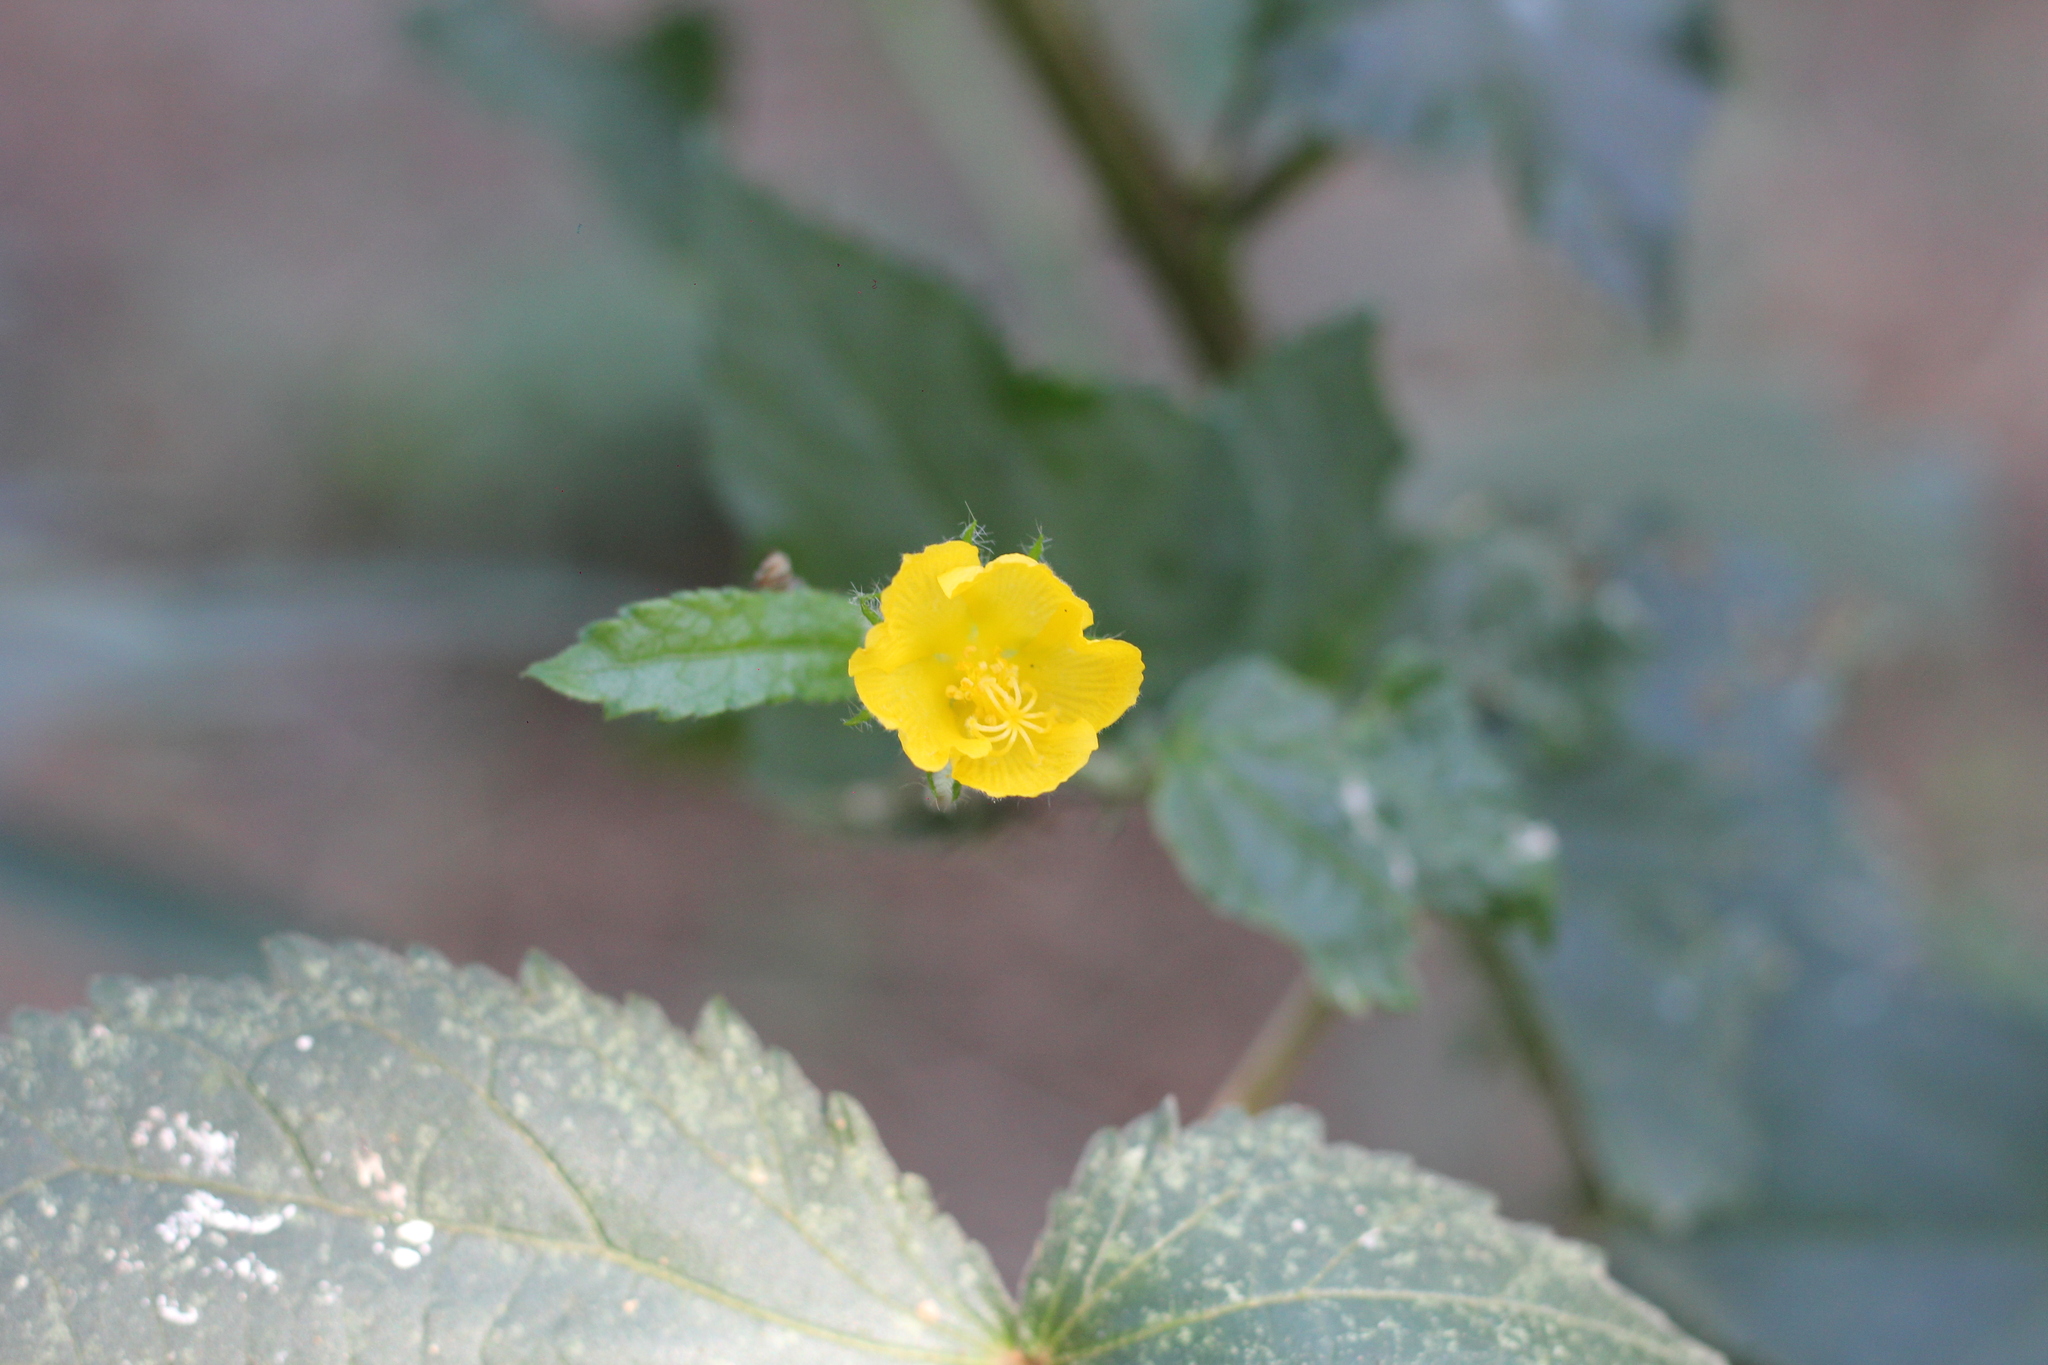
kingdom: Plantae
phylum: Tracheophyta
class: Magnoliopsida
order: Malvales
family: Malvaceae
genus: Pavonia
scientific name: Pavonia vitifolia
